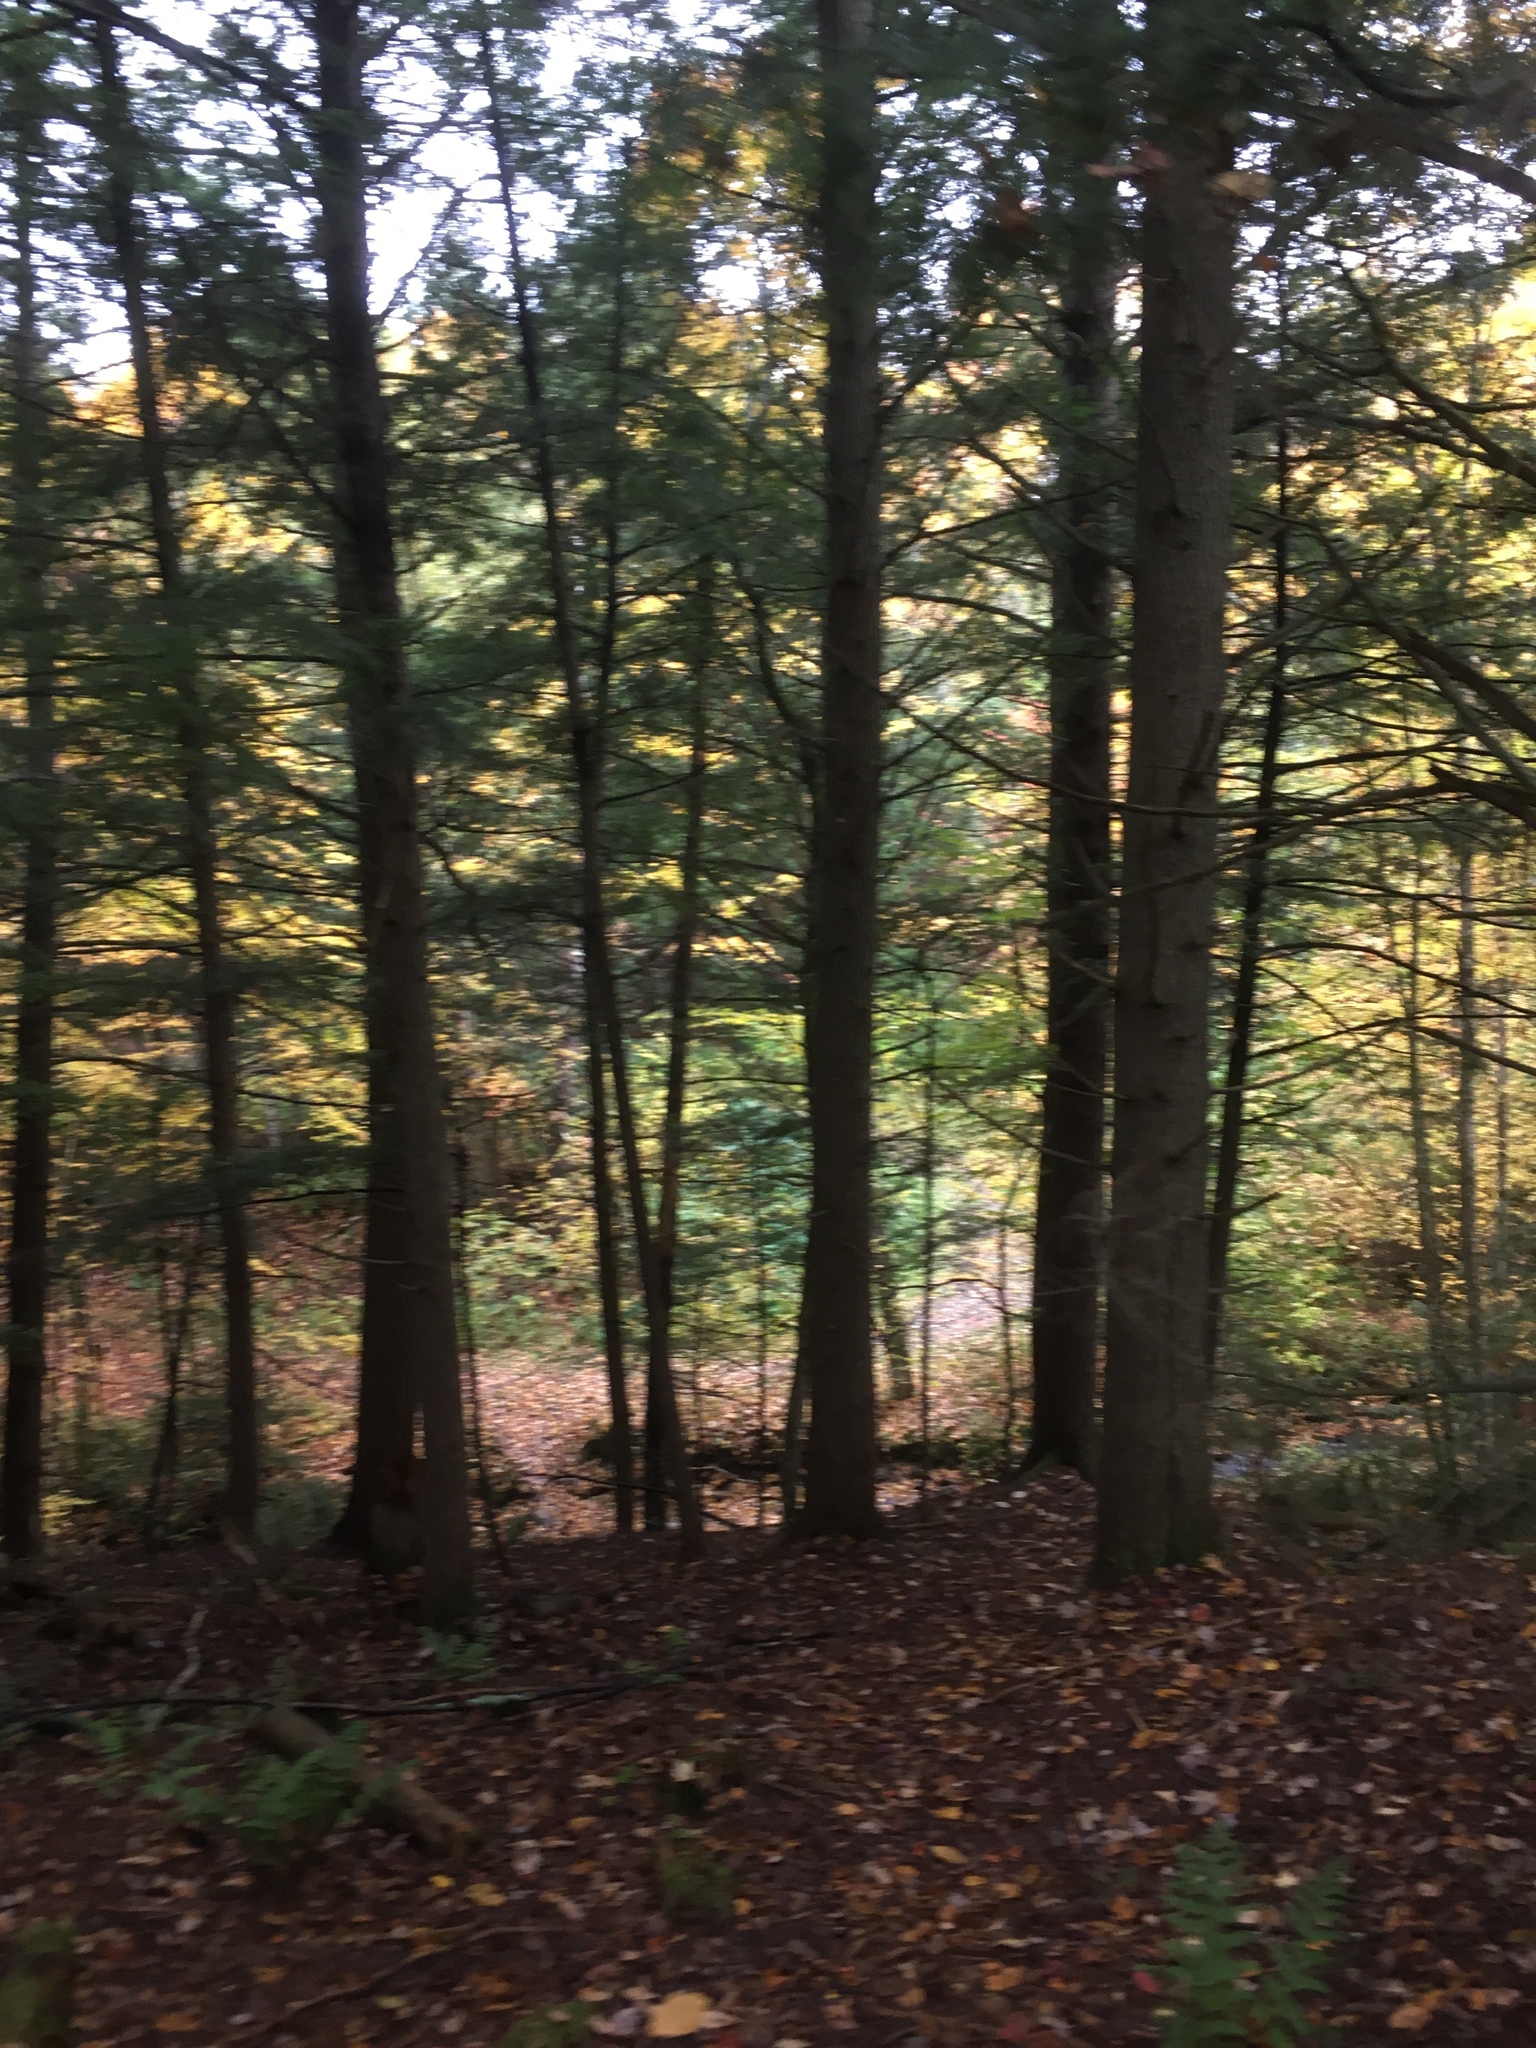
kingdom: Plantae
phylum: Tracheophyta
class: Pinopsida
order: Pinales
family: Pinaceae
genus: Tsuga
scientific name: Tsuga canadensis
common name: Eastern hemlock
